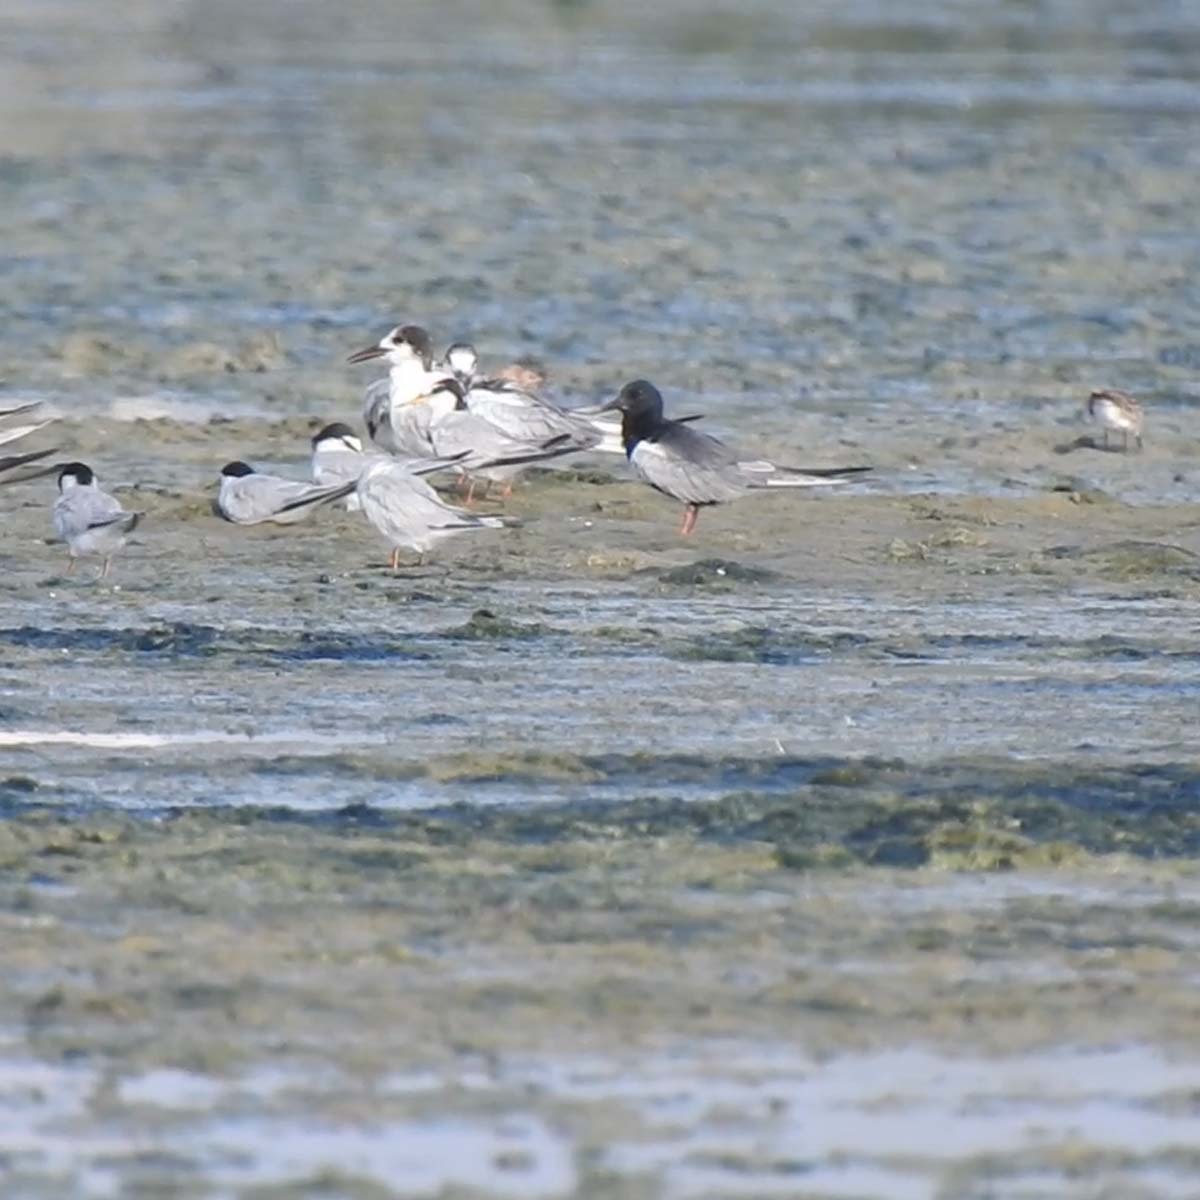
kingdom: Animalia
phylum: Chordata
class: Aves
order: Charadriiformes
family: Laridae
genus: Chlidonias
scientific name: Chlidonias leucopterus
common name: White-winged tern
